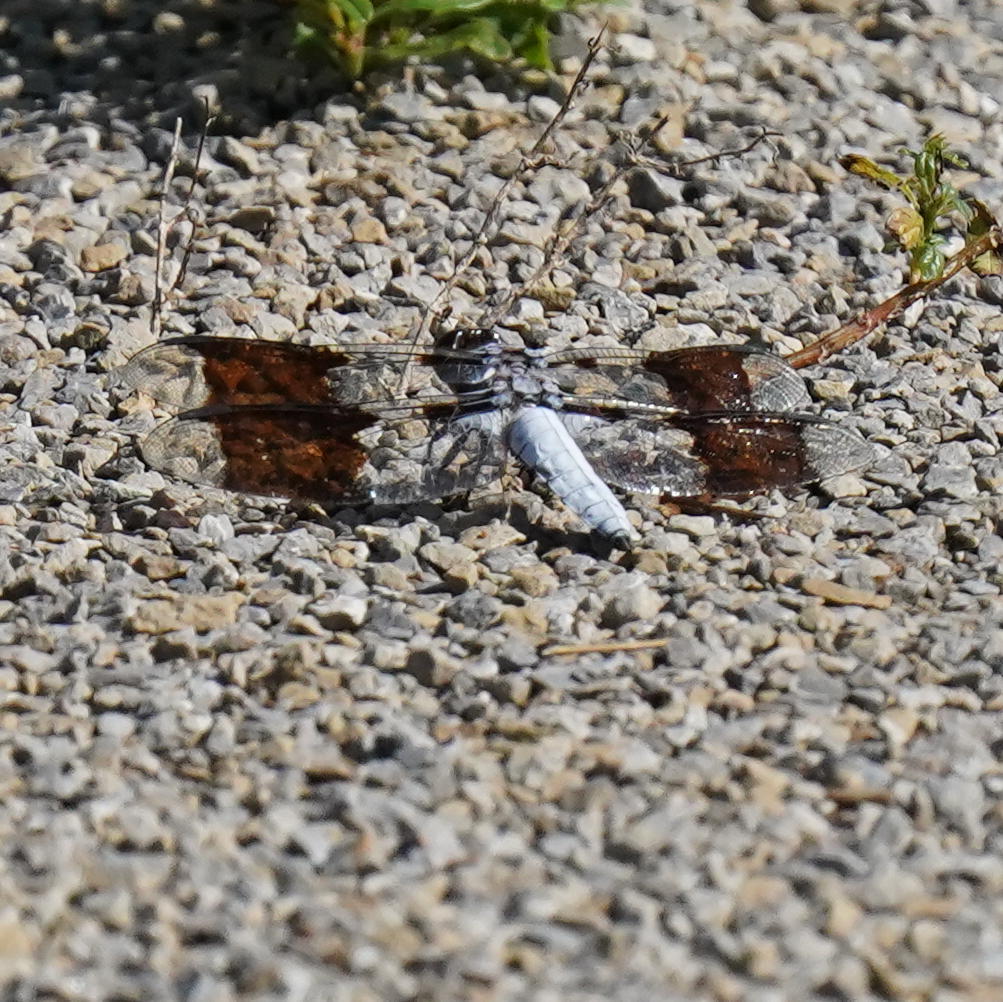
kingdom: Animalia
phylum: Arthropoda
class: Insecta
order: Odonata
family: Libellulidae
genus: Plathemis
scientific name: Plathemis lydia
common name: Common whitetail
